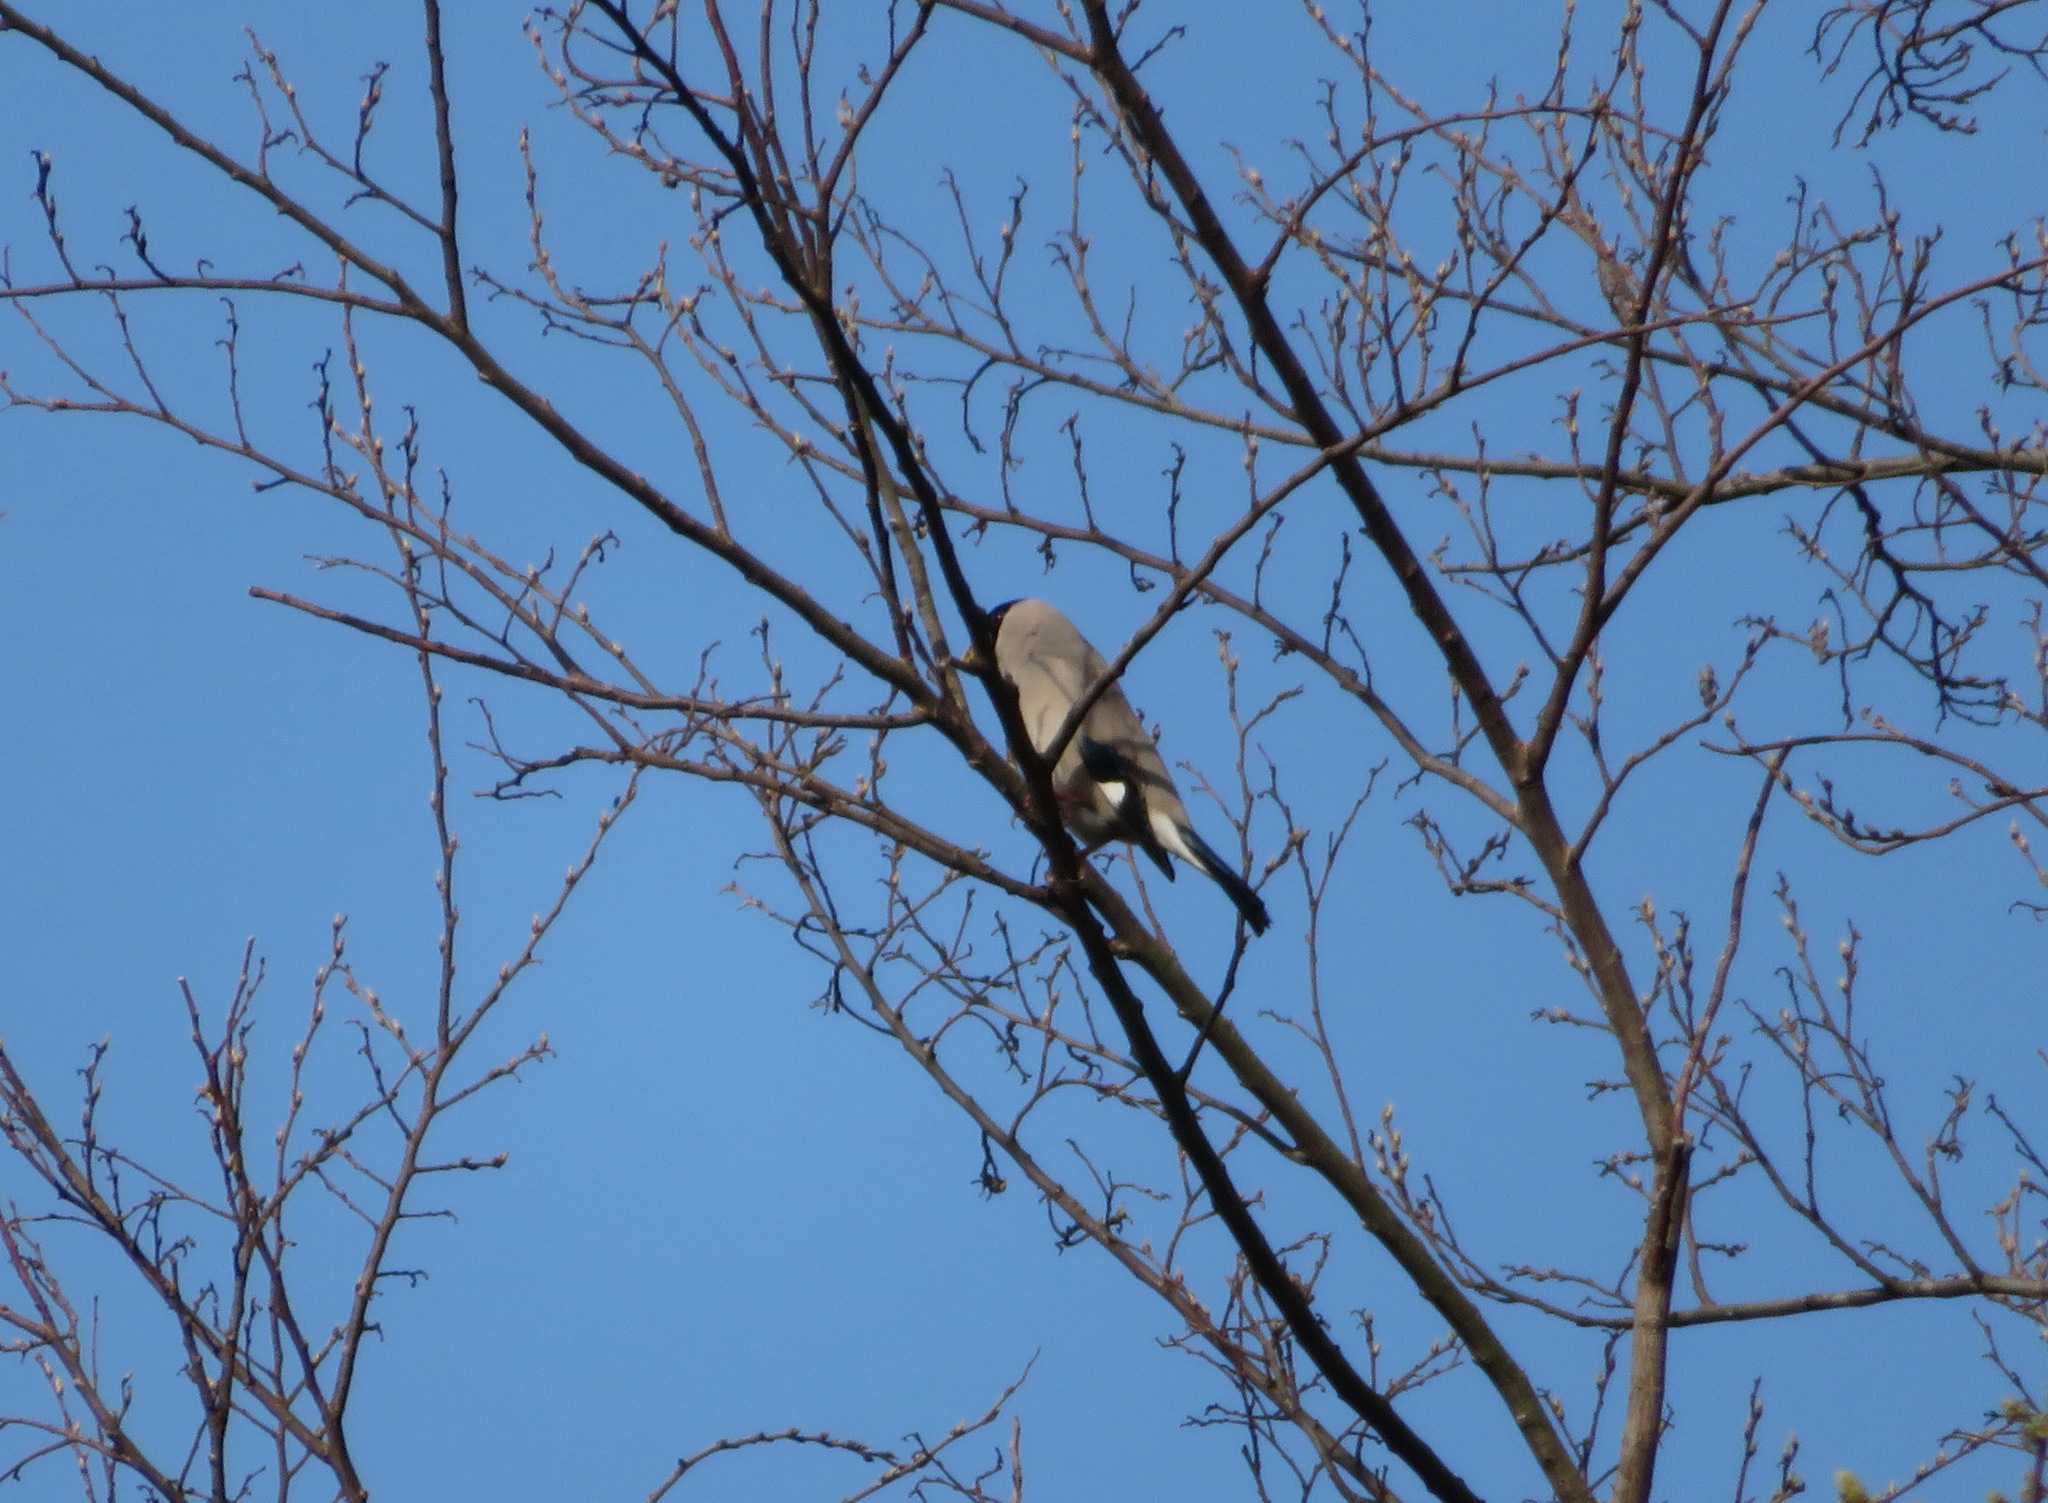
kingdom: Animalia
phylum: Chordata
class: Aves
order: Passeriformes
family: Fringillidae
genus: Eophona
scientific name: Eophona personata
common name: Japanese grosbeak
